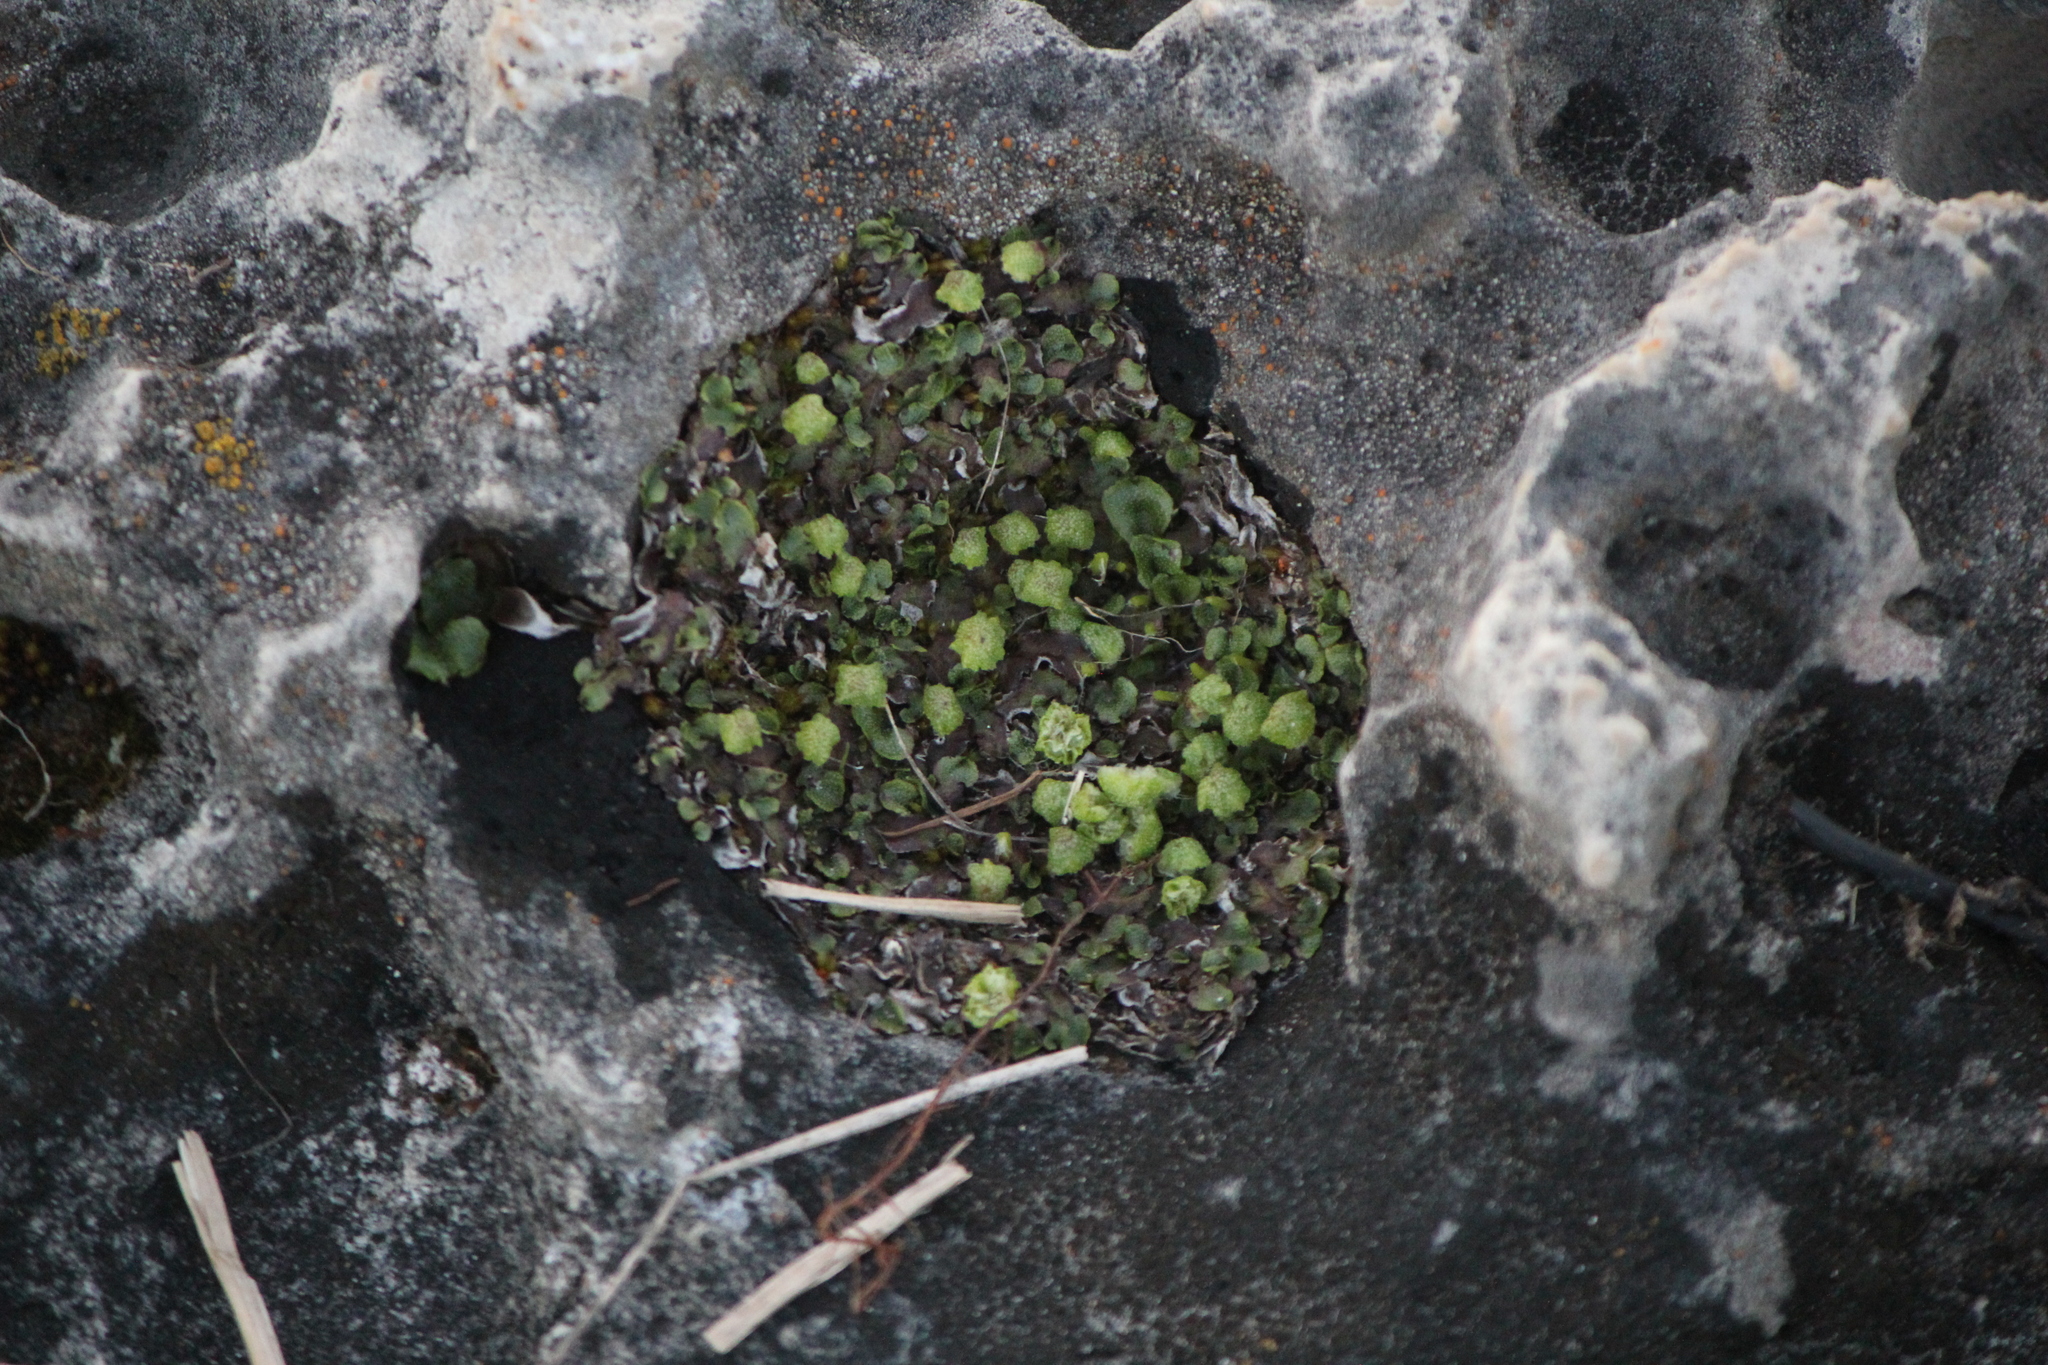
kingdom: Plantae
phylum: Marchantiophyta
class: Marchantiopsida
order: Marchantiales
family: Marchantiaceae
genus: Marchantia
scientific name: Marchantia quadrata
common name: Narrow mushroom-headed liverwort
